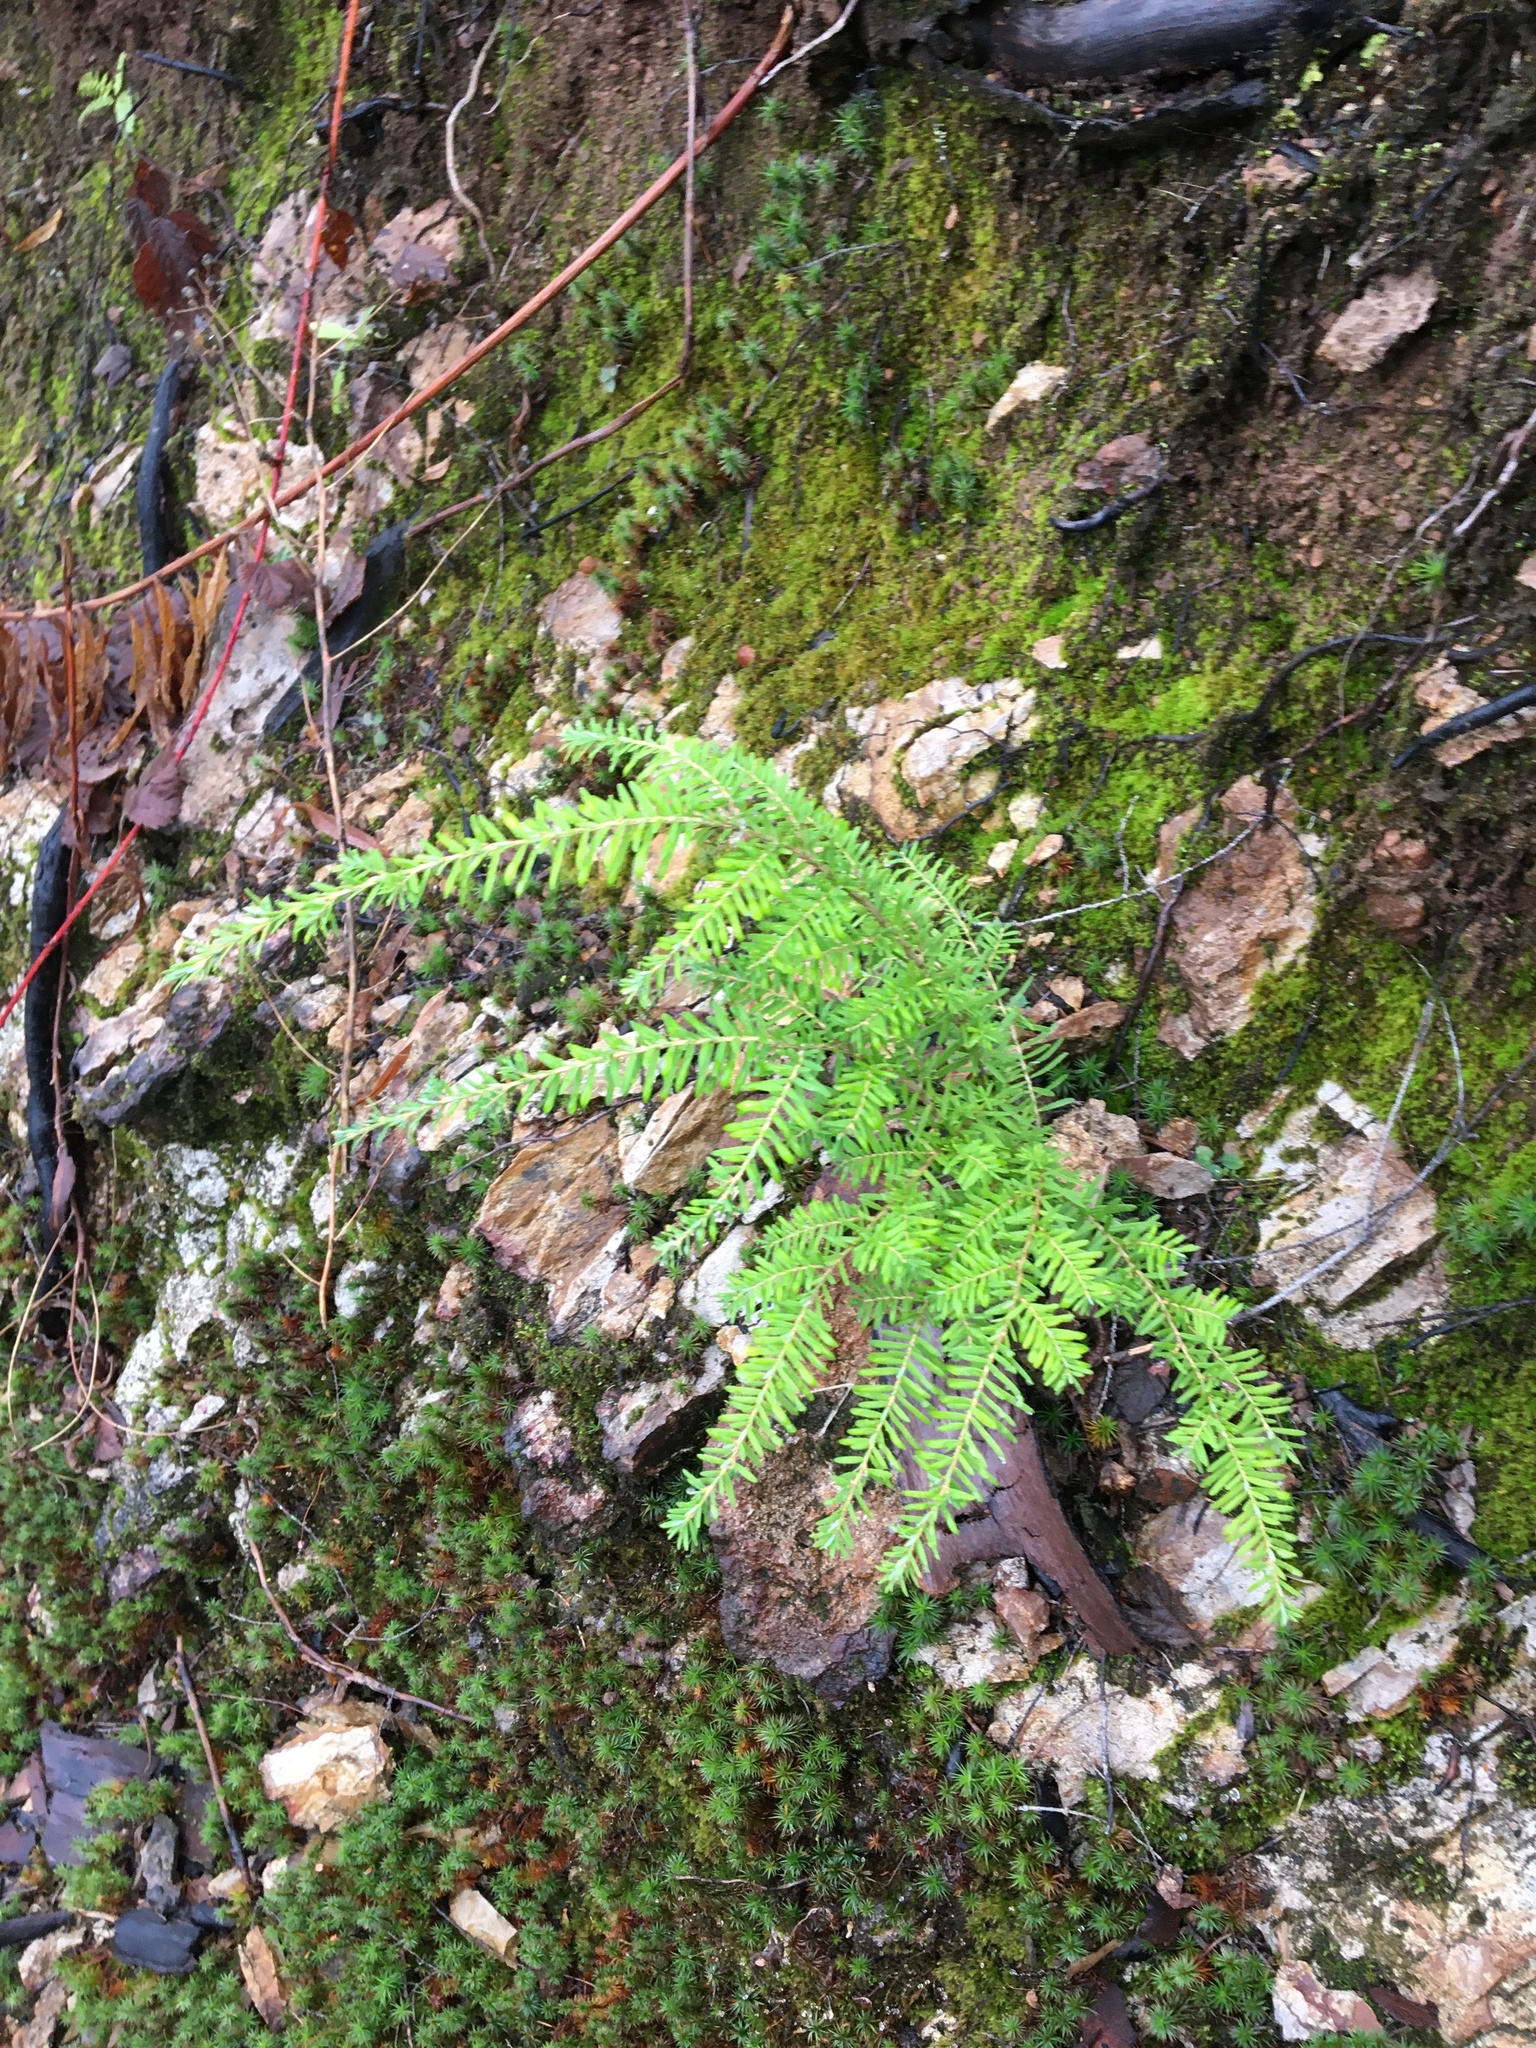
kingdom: Plantae
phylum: Tracheophyta
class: Pinopsida
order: Pinales
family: Pinaceae
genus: Tsuga
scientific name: Tsuga heterophylla
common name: Western hemlock
